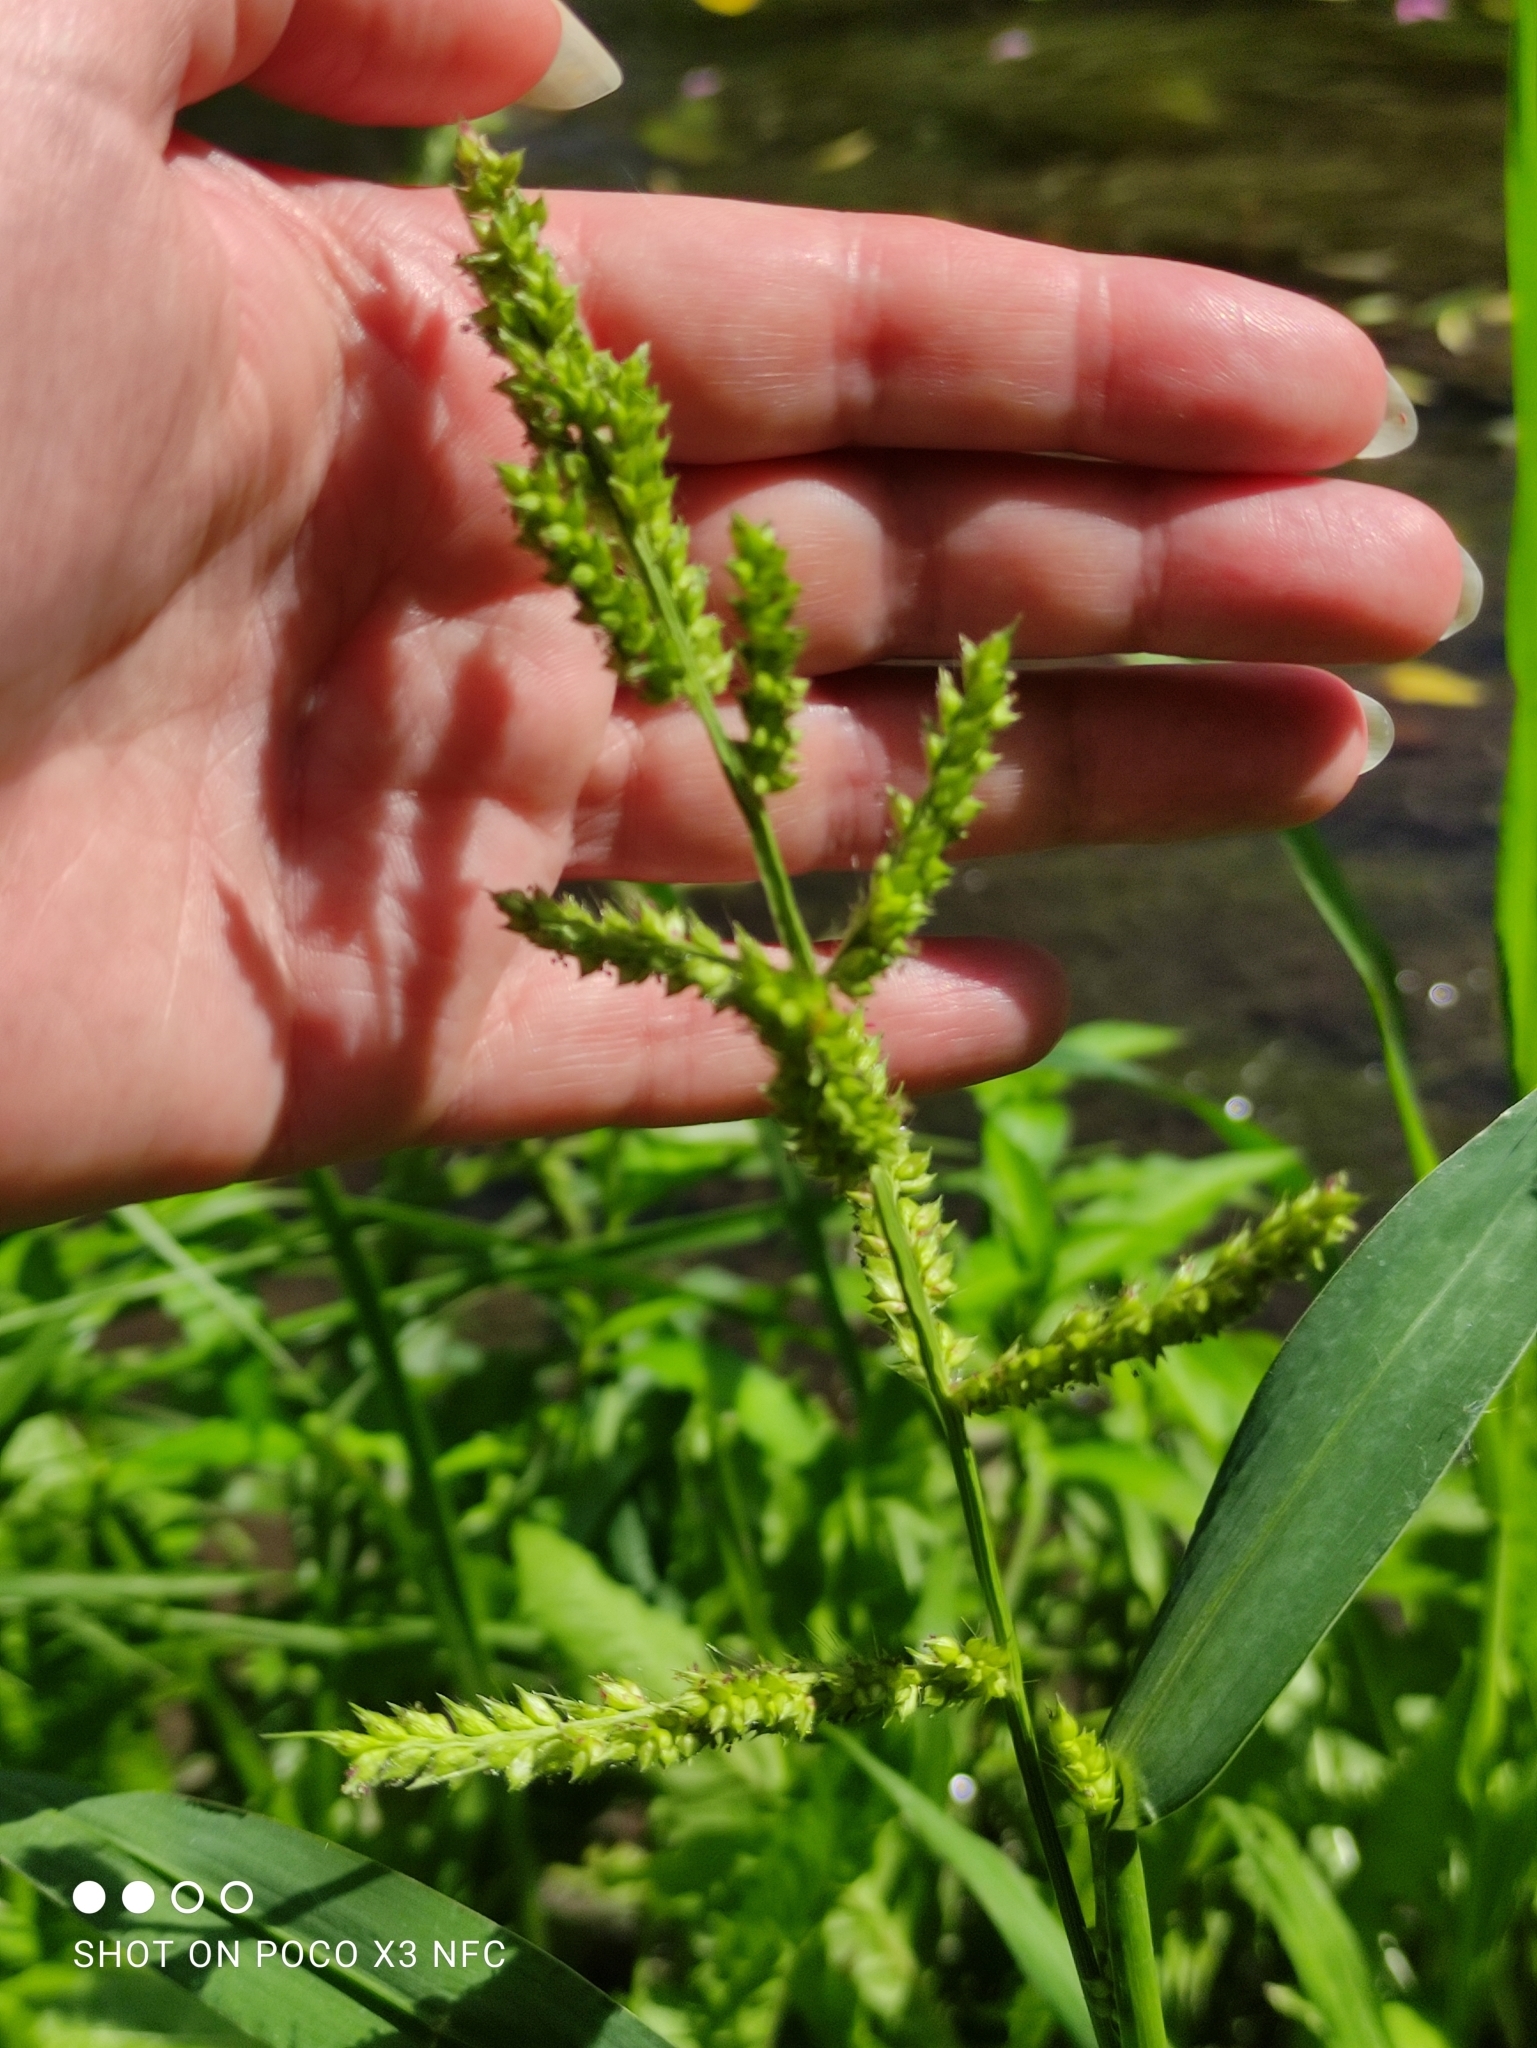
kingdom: Plantae
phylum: Tracheophyta
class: Liliopsida
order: Poales
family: Poaceae
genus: Echinochloa
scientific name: Echinochloa crus-galli
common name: Cockspur
